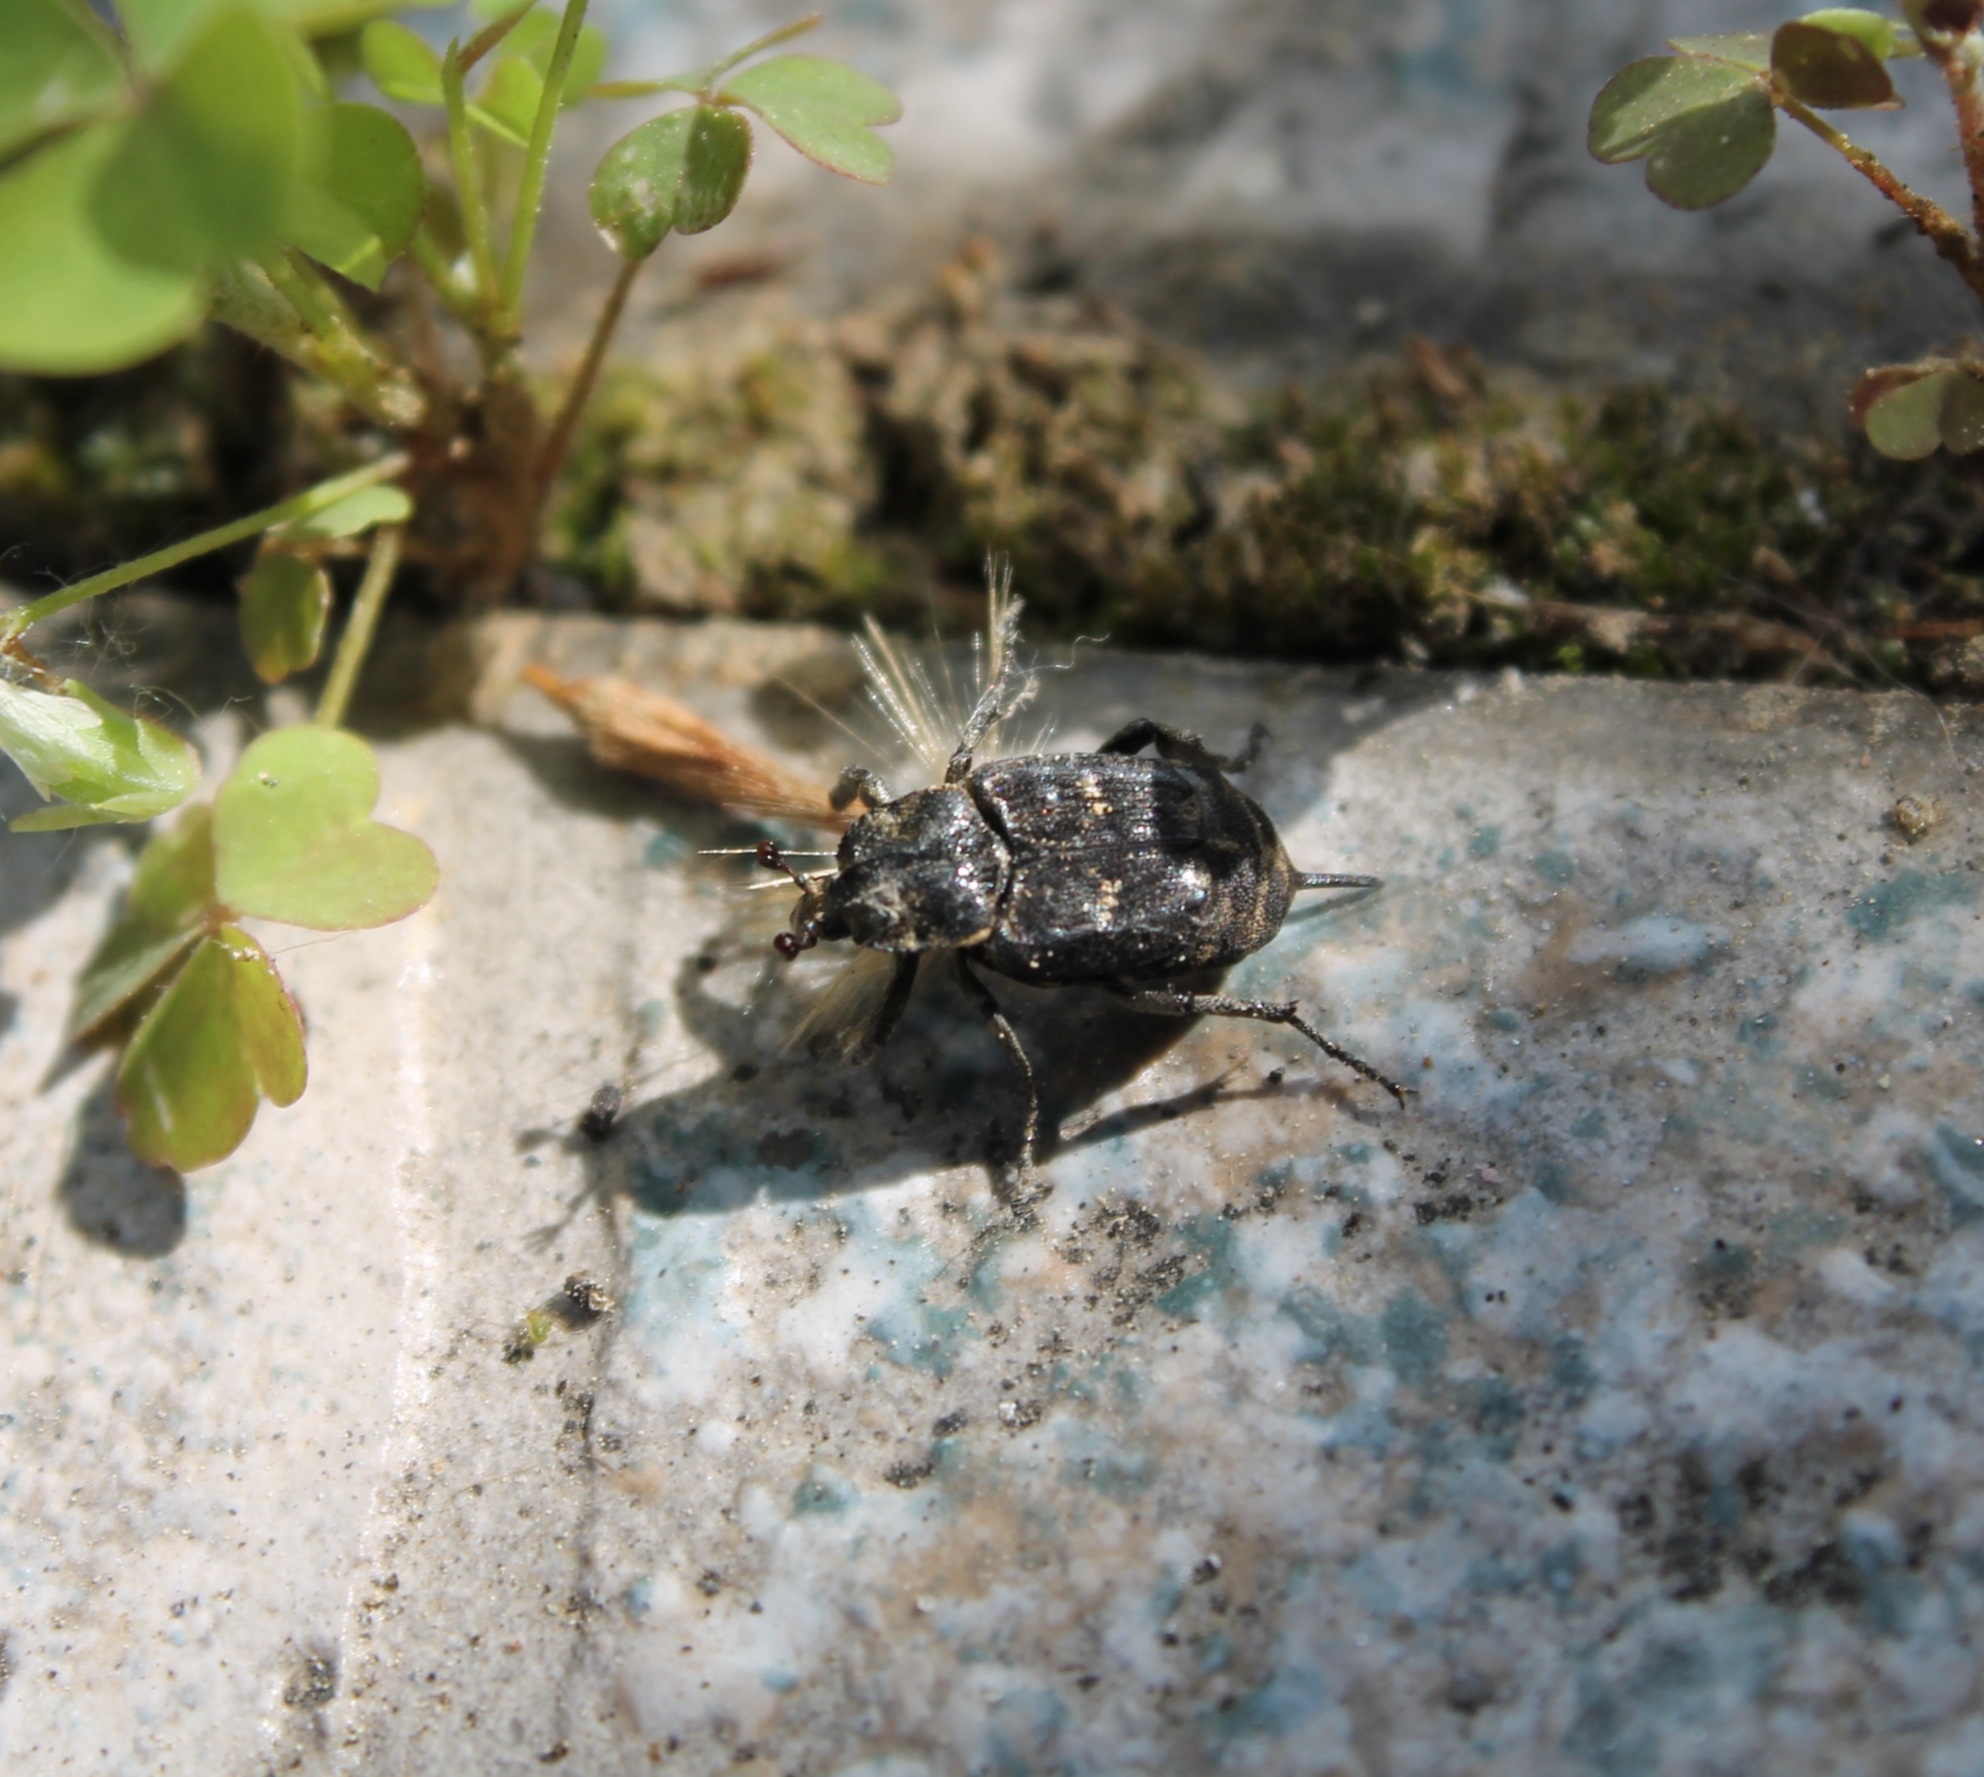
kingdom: Animalia
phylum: Arthropoda
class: Insecta
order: Coleoptera
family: Scarabaeidae
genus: Valgus
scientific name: Valgus hemipterus
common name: Bug flower chafer
